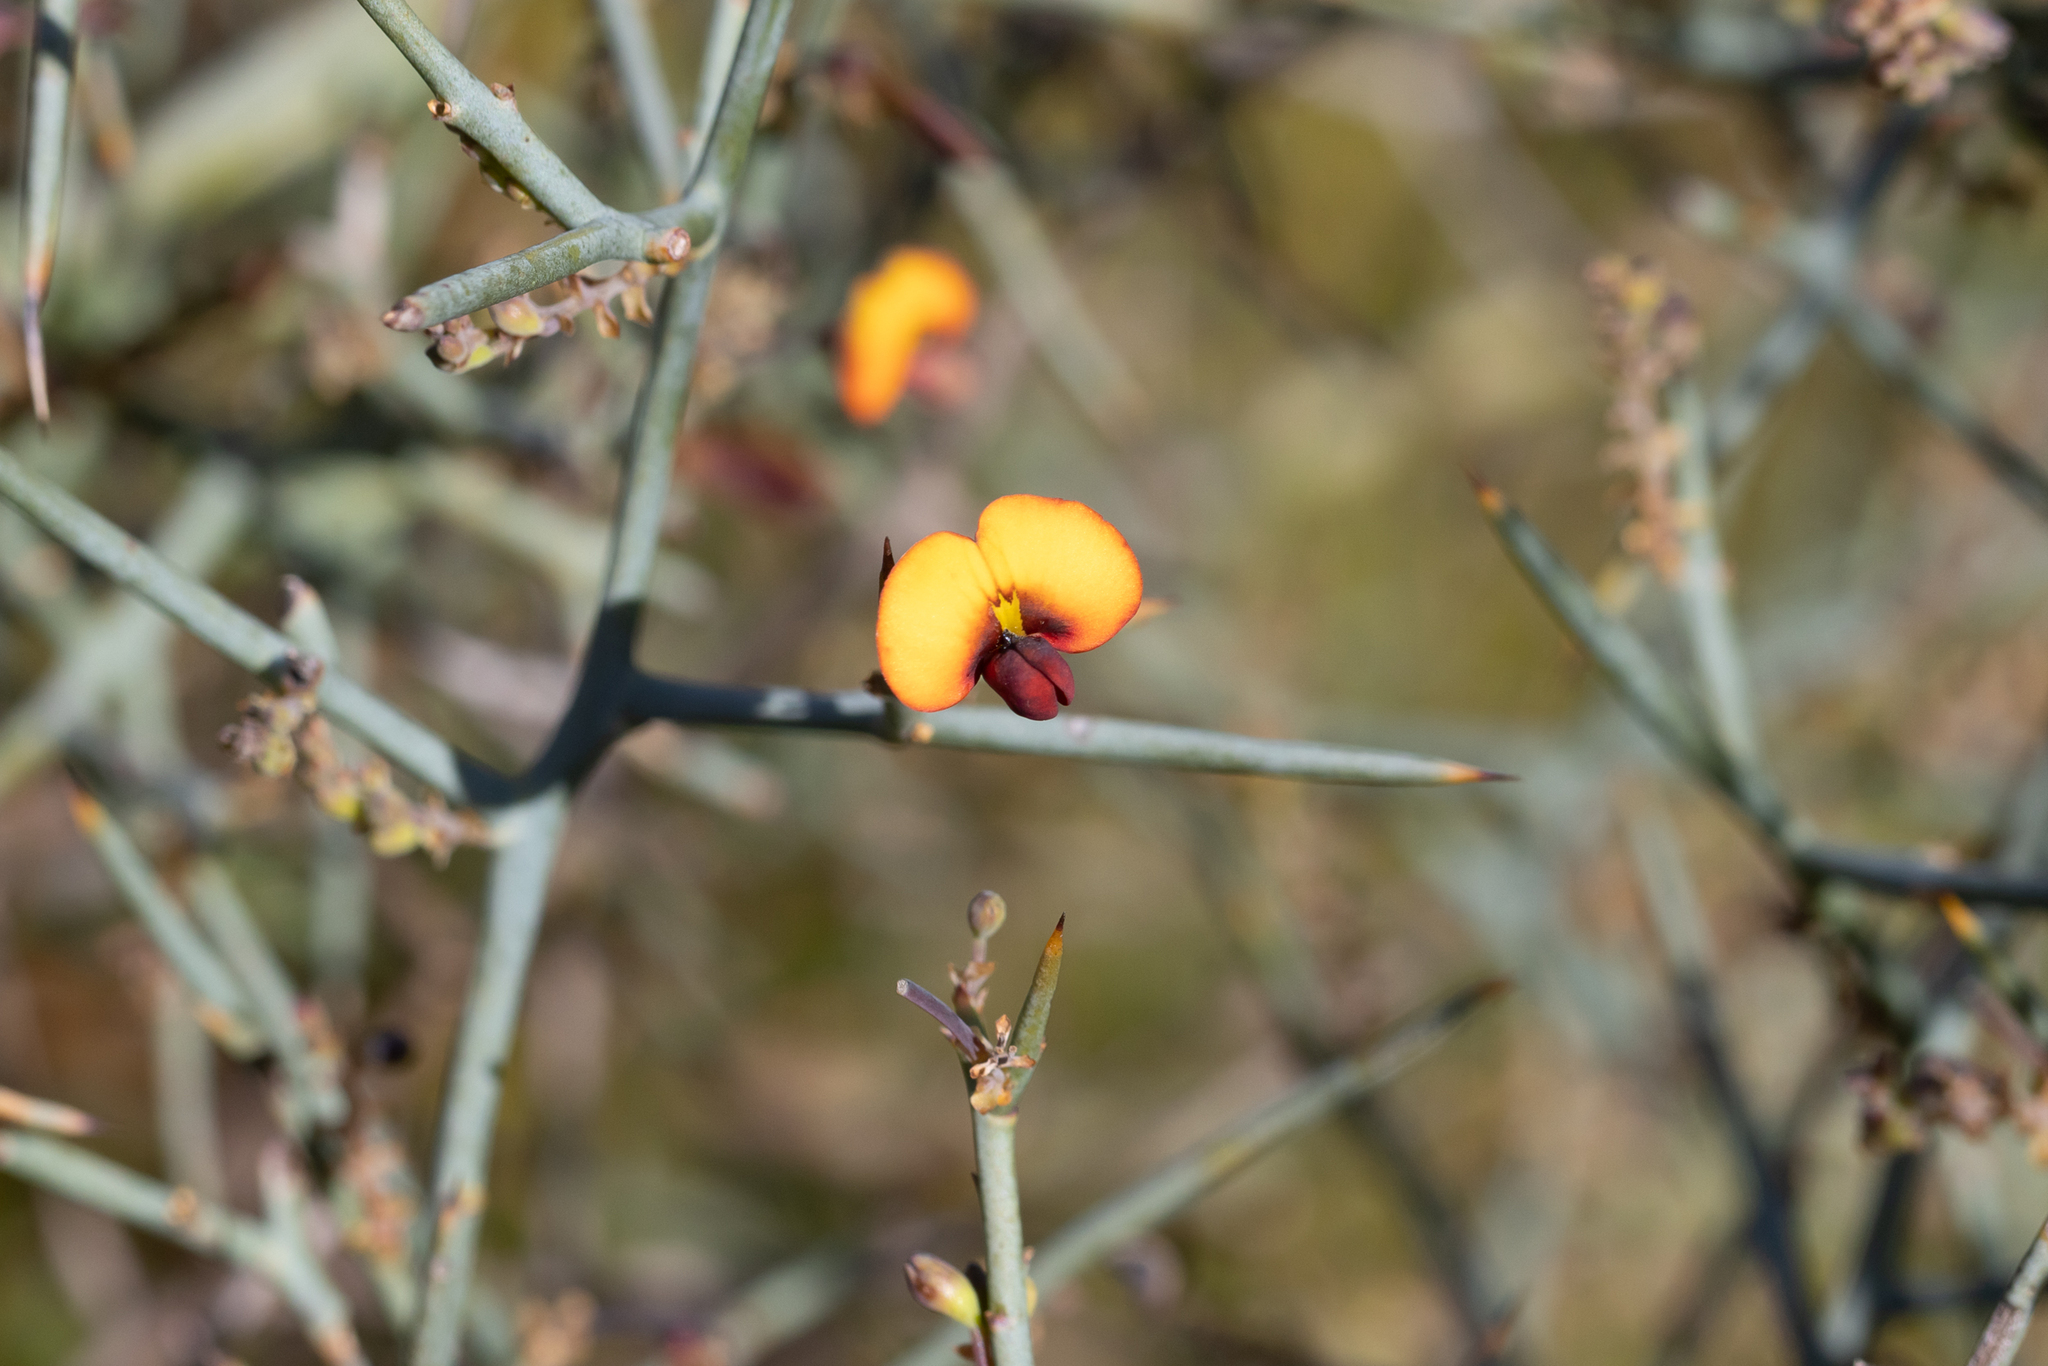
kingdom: Plantae
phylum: Tracheophyta
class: Magnoliopsida
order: Fabales
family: Fabaceae
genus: Daviesia
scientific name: Daviesia horrida
